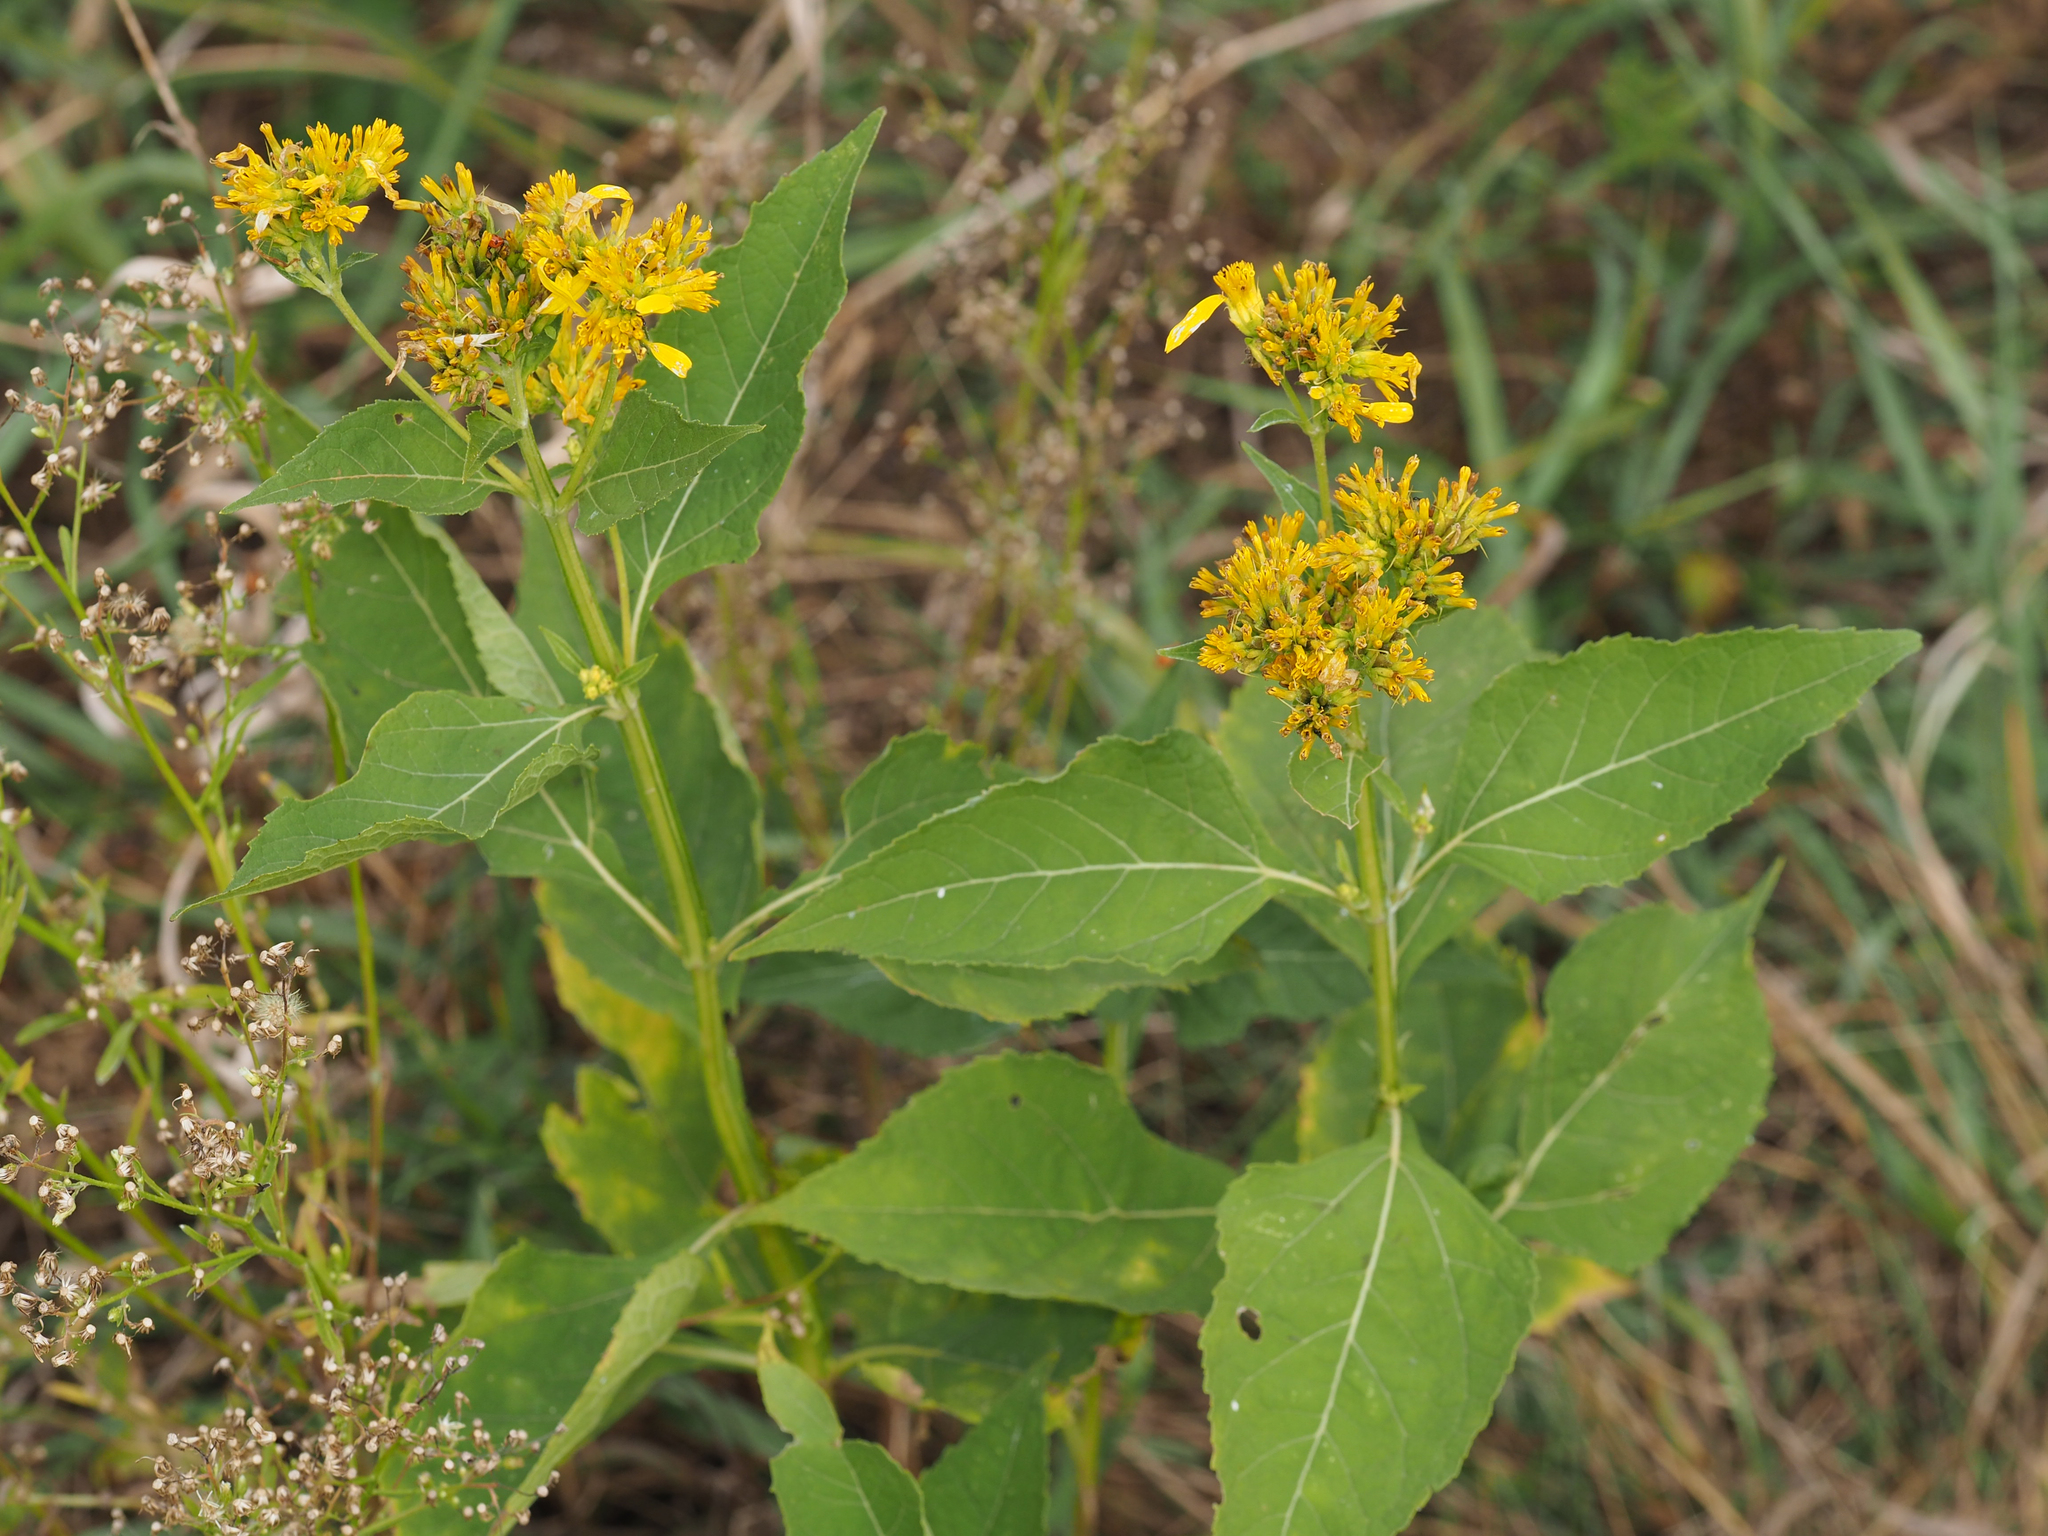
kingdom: Plantae
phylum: Tracheophyta
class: Magnoliopsida
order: Asterales
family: Asteraceae
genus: Verbesina
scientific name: Verbesina occidentalis
